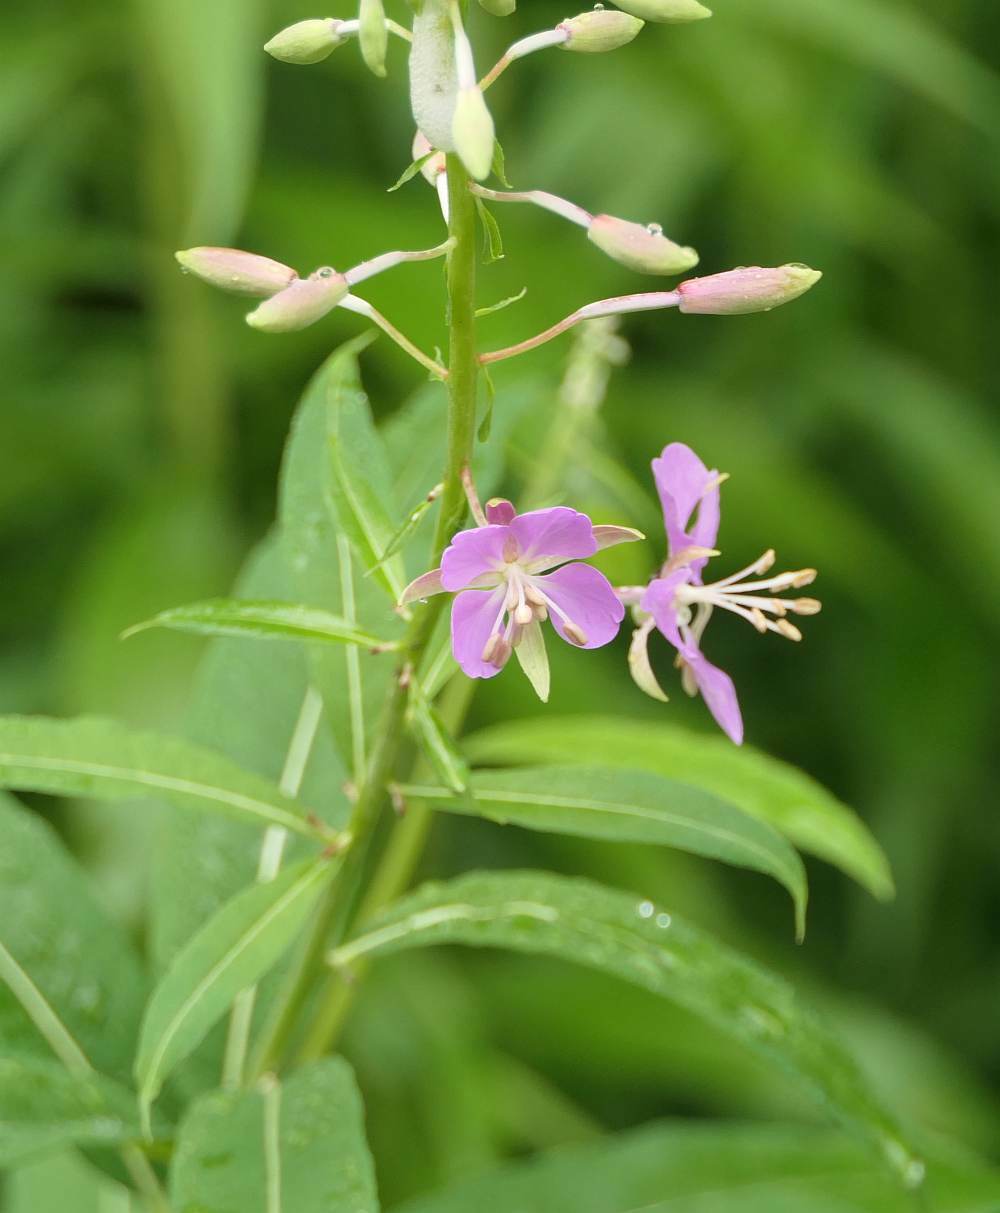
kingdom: Plantae
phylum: Tracheophyta
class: Magnoliopsida
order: Myrtales
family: Onagraceae
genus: Chamaenerion
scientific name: Chamaenerion angustifolium
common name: Fireweed
